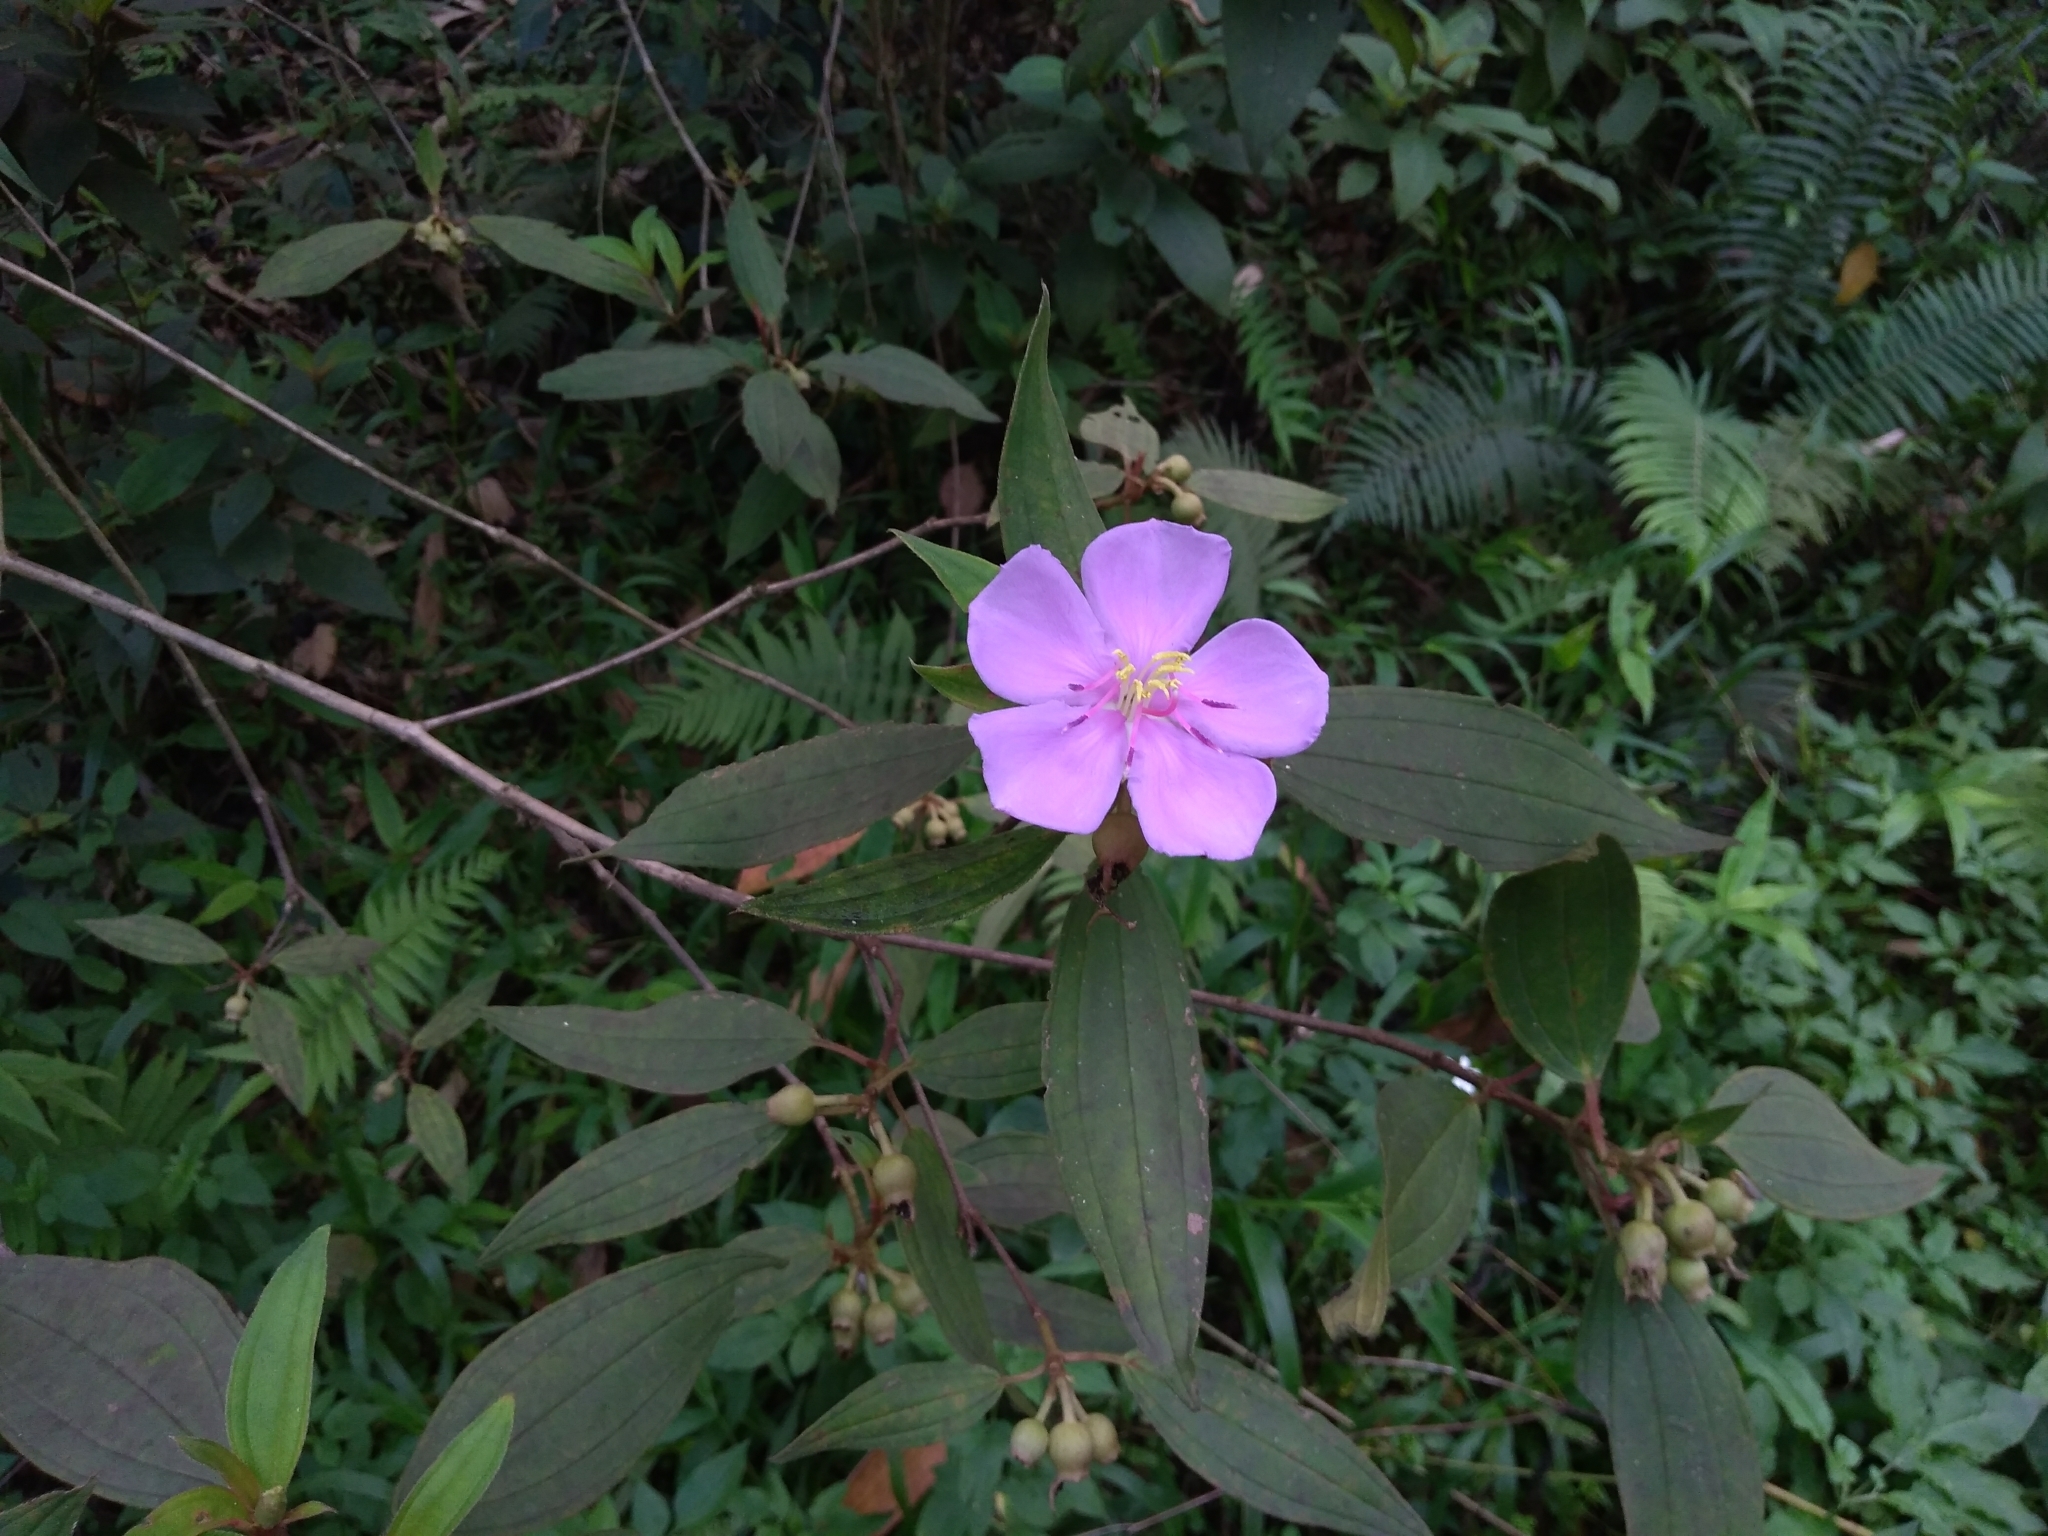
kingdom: Plantae
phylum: Tracheophyta
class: Magnoliopsida
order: Myrtales
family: Melastomataceae
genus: Melastoma
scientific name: Melastoma malabathricum
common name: Indian-rhododendron
